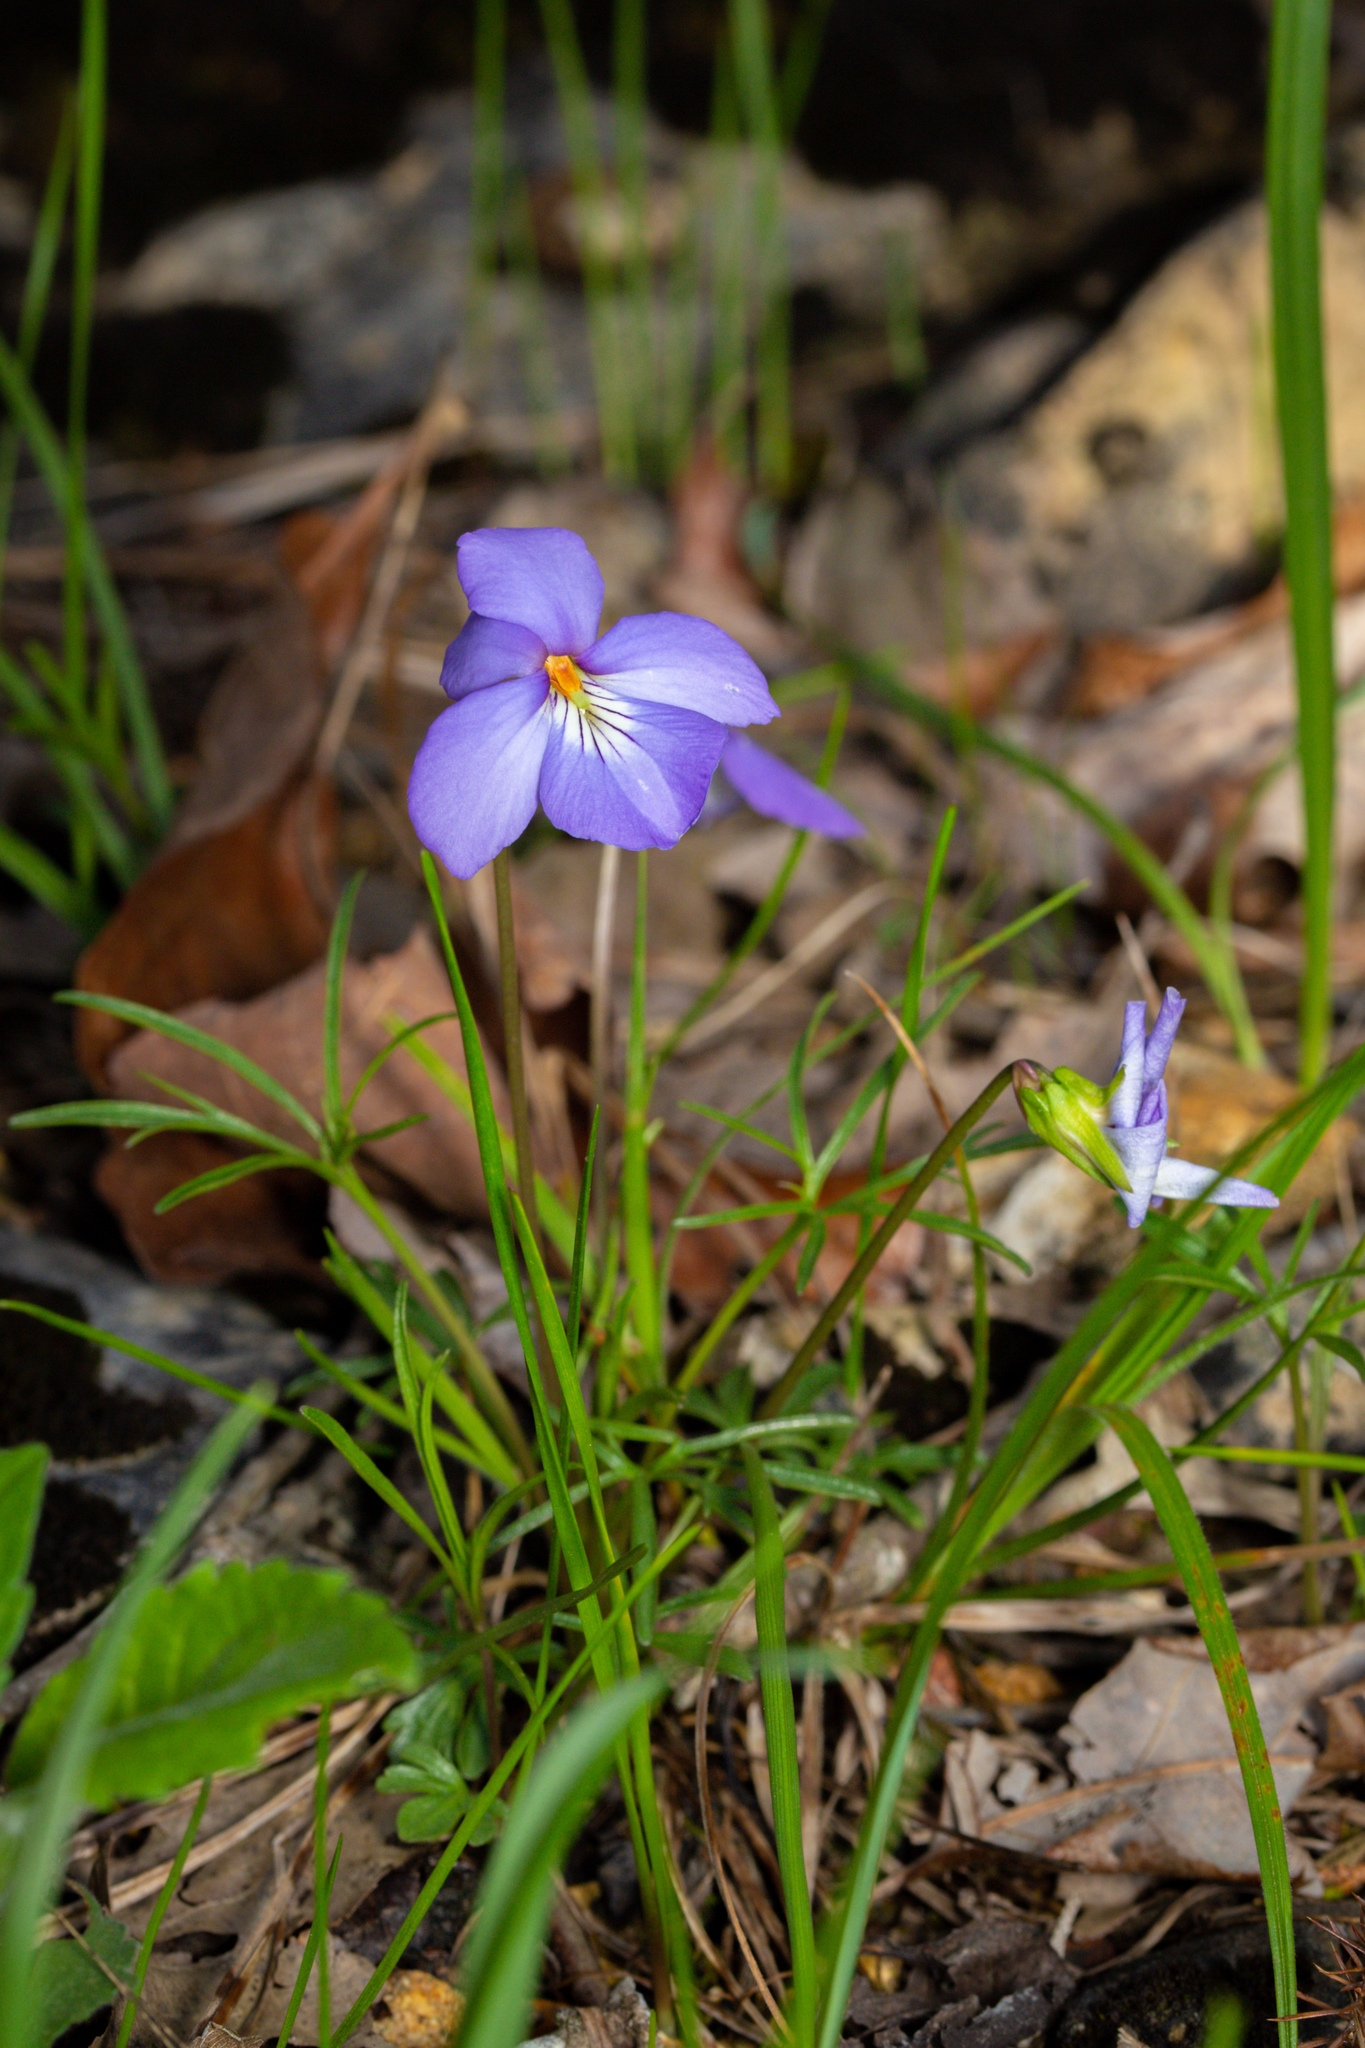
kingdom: Plantae
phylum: Tracheophyta
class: Magnoliopsida
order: Malpighiales
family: Violaceae
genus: Viola
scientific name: Viola pedata
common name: Pansy violet
